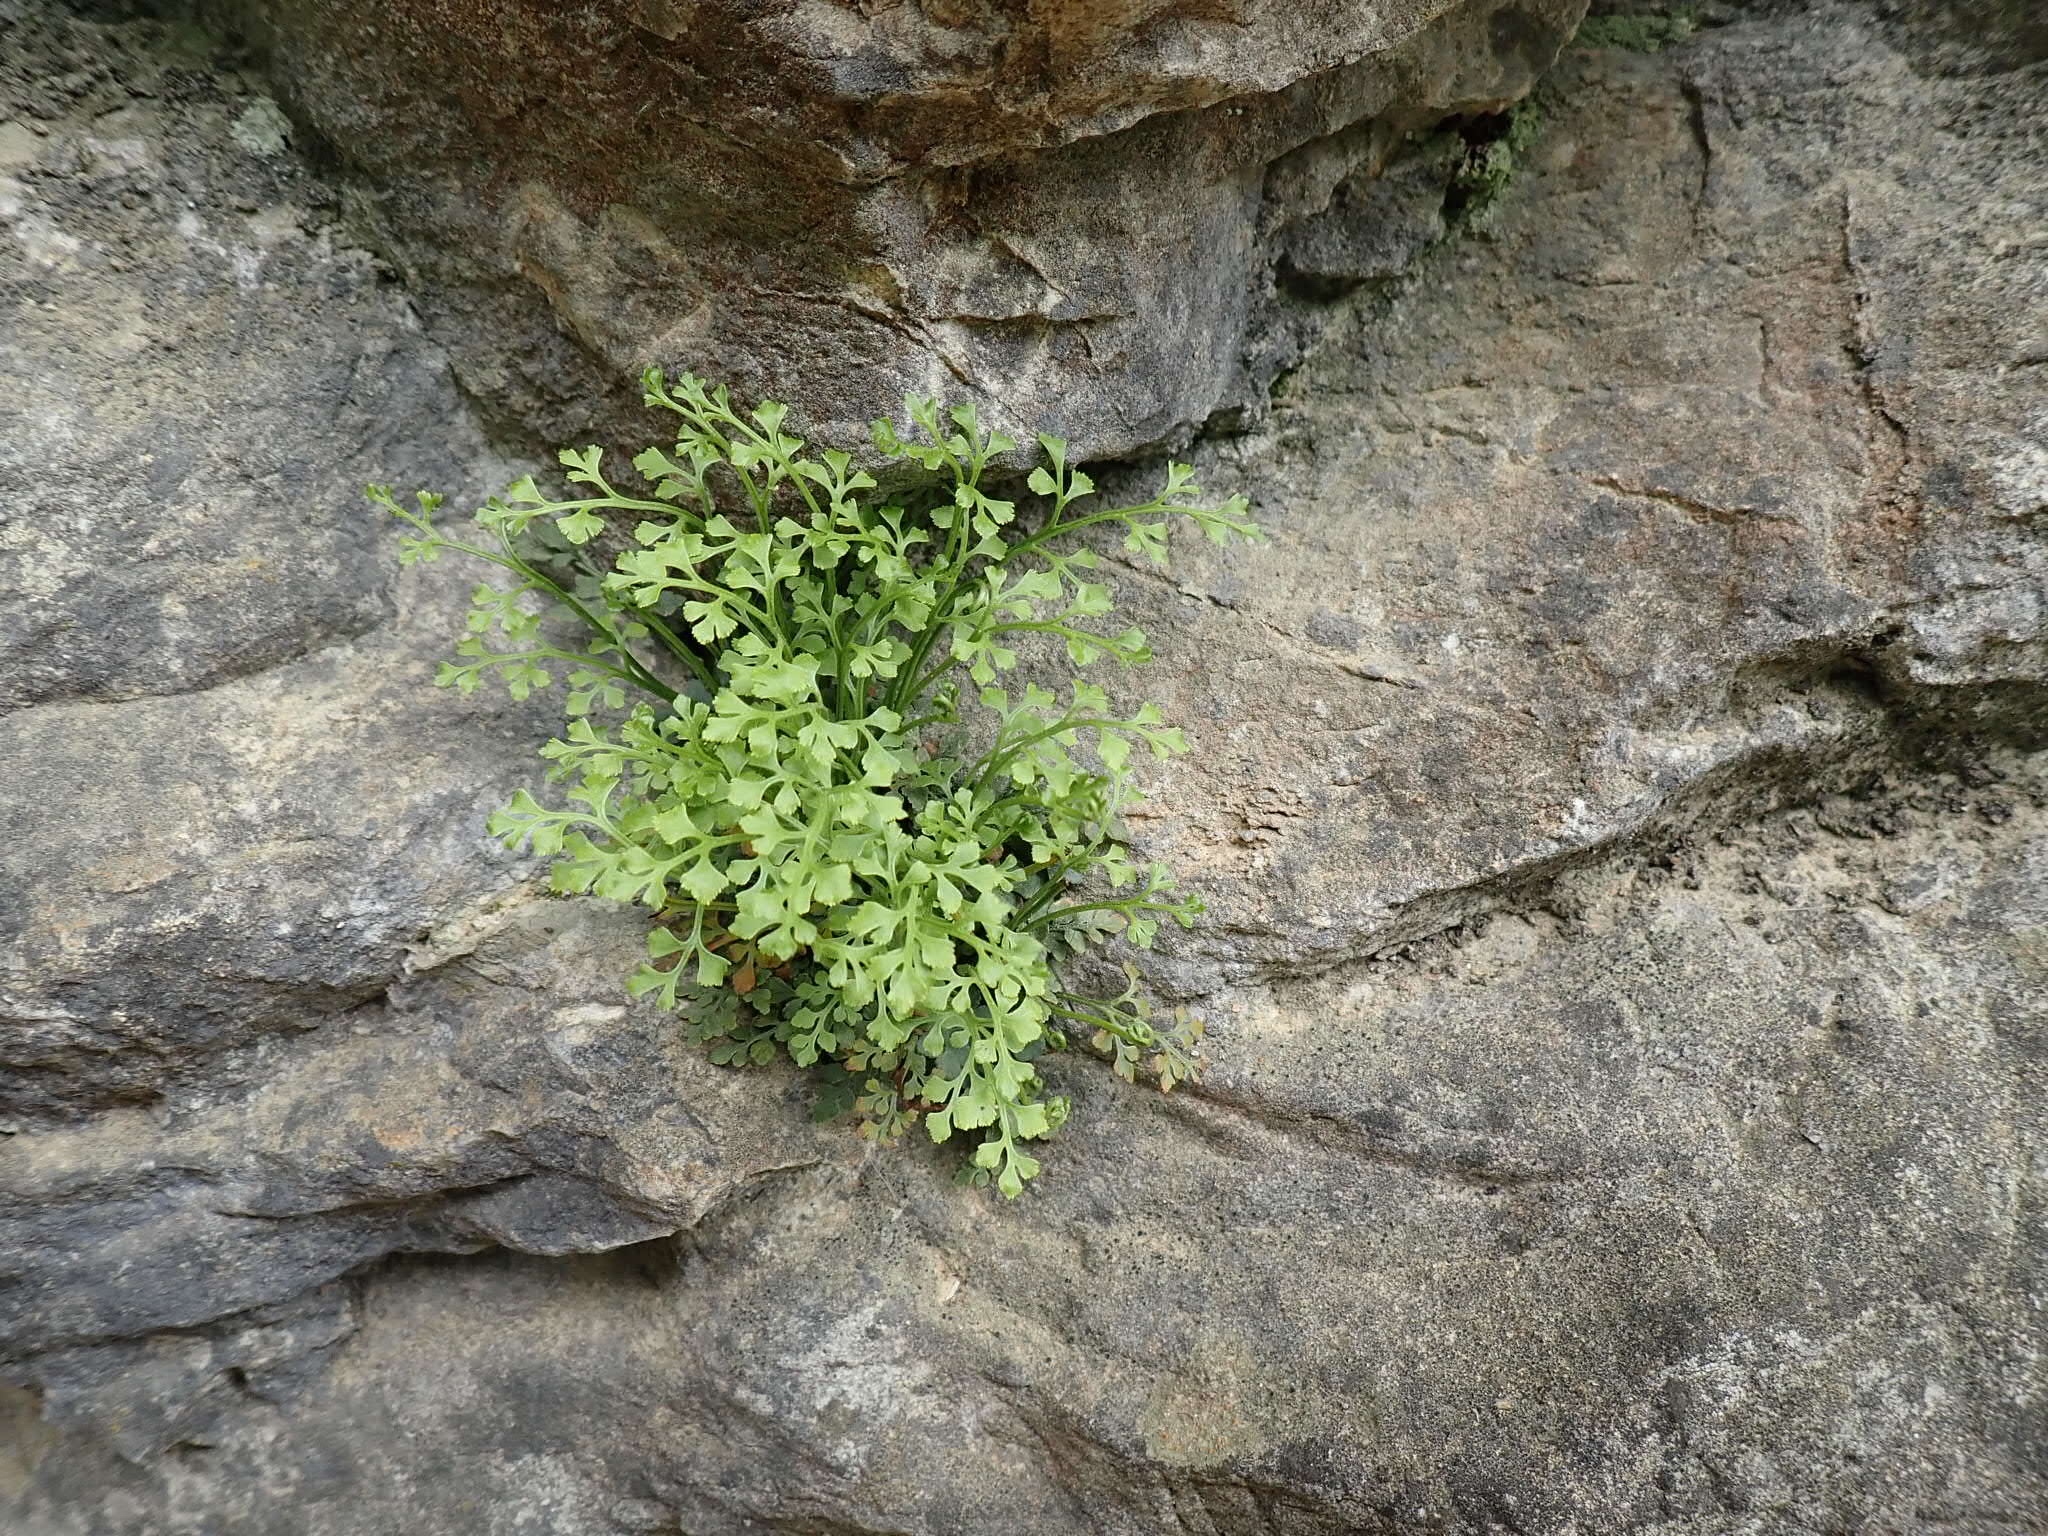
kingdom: Plantae
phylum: Tracheophyta
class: Polypodiopsida
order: Polypodiales
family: Aspleniaceae
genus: Asplenium
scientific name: Asplenium ruta-muraria
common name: Wall-rue
